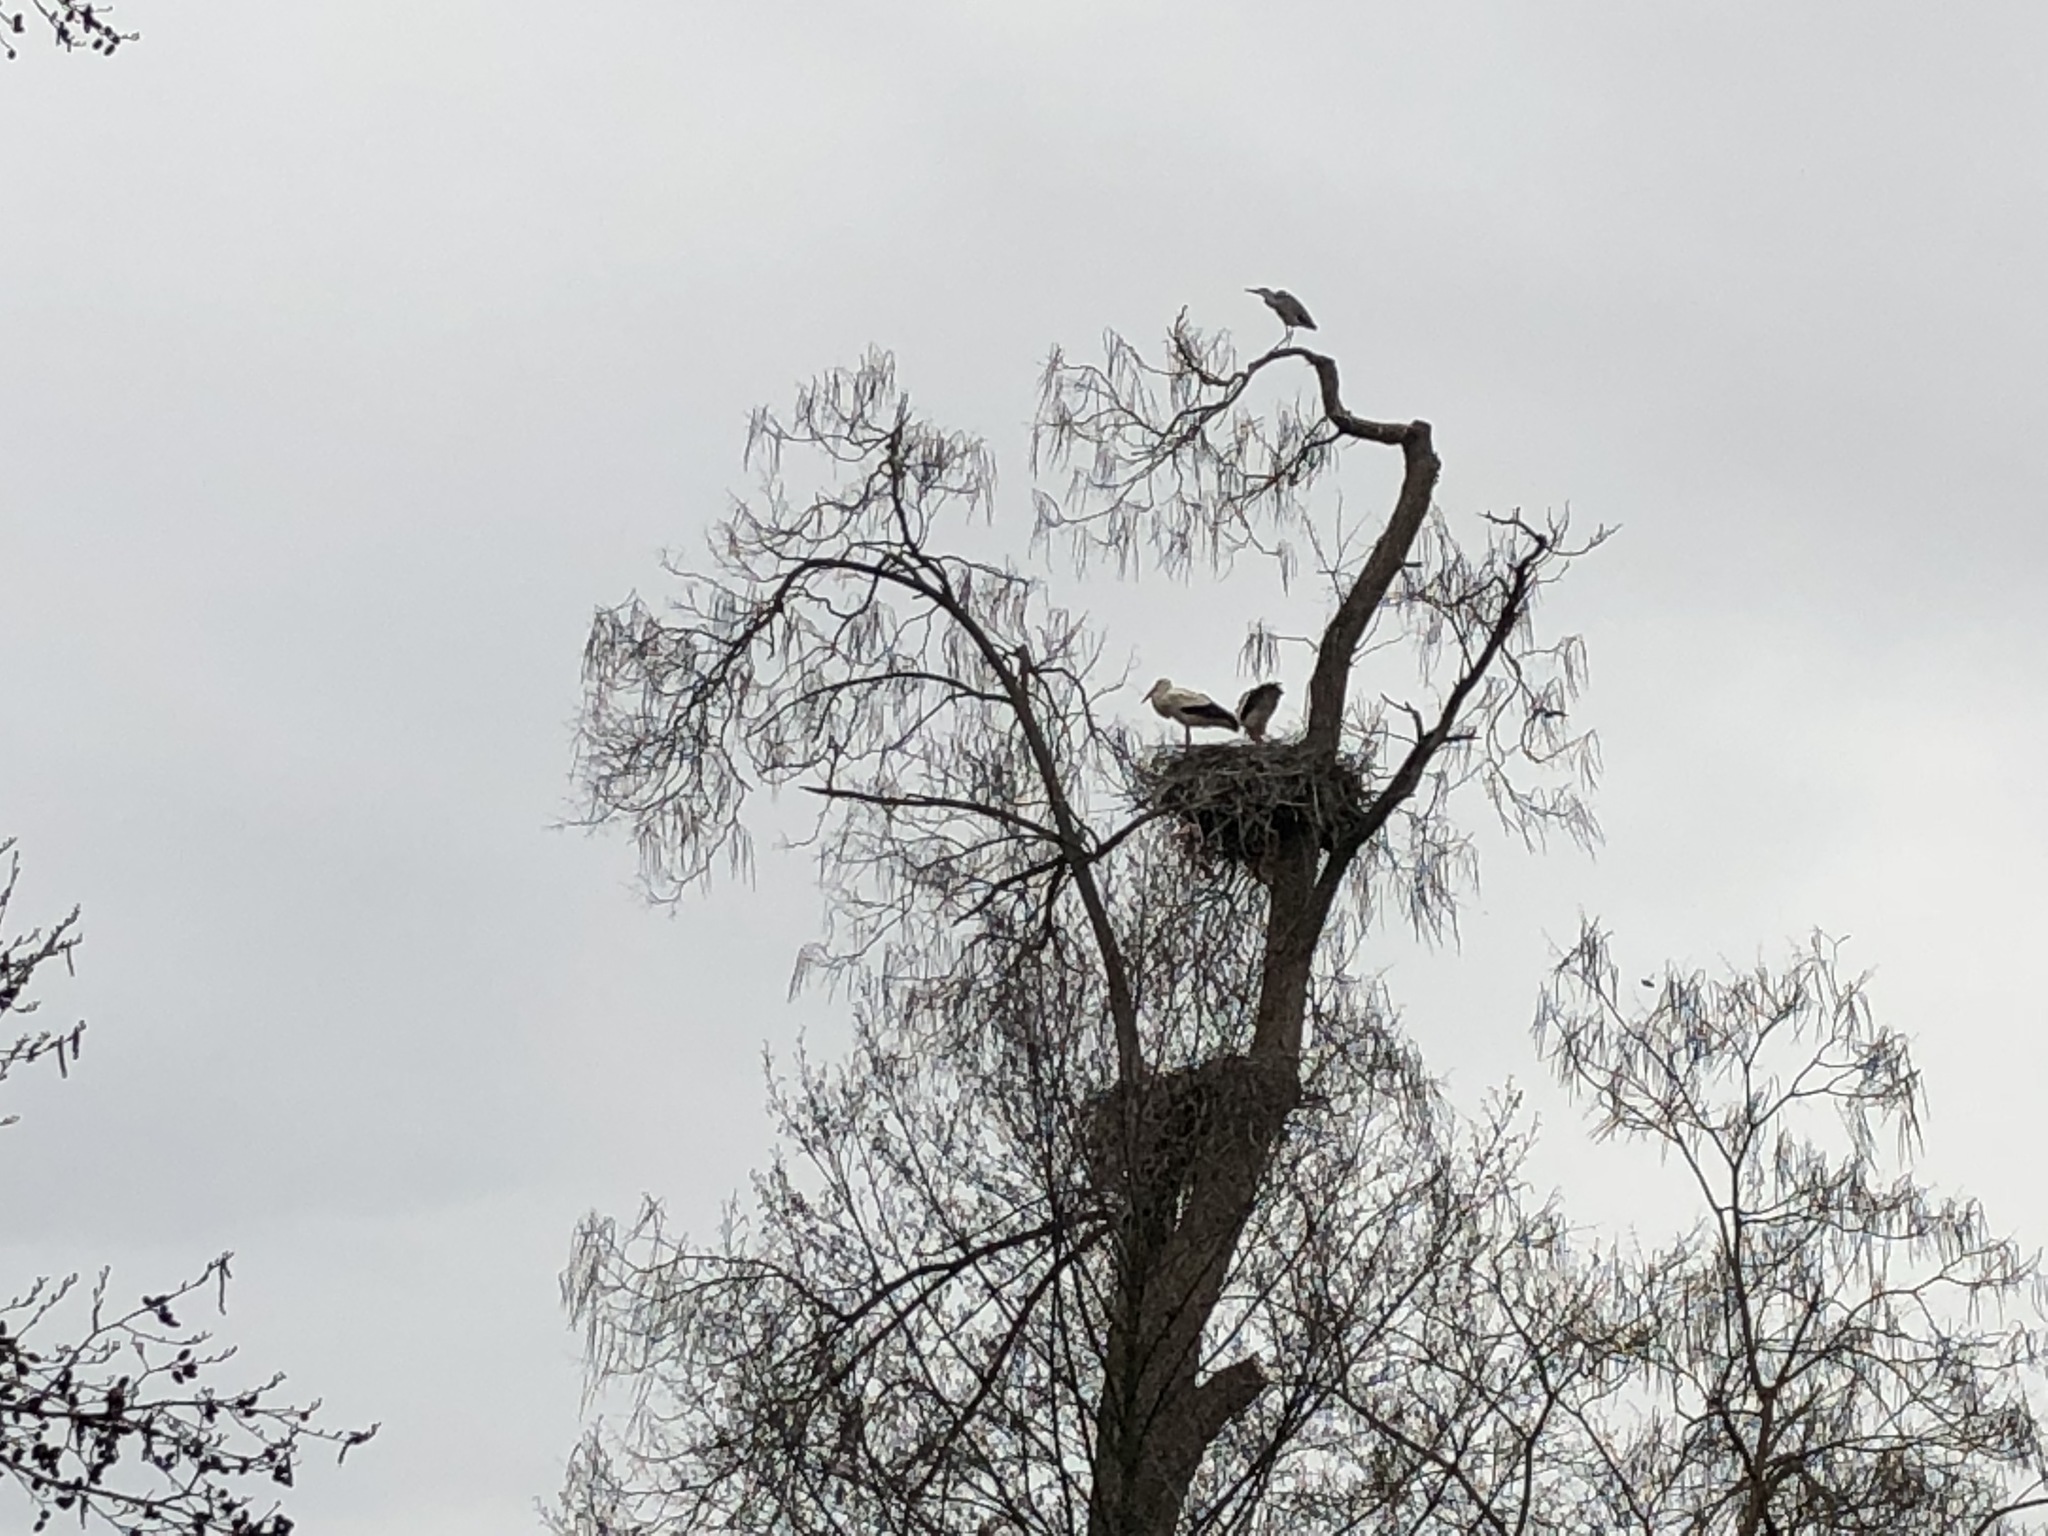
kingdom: Animalia
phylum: Chordata
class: Aves
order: Ciconiiformes
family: Ciconiidae
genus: Ciconia
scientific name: Ciconia ciconia
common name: White stork
